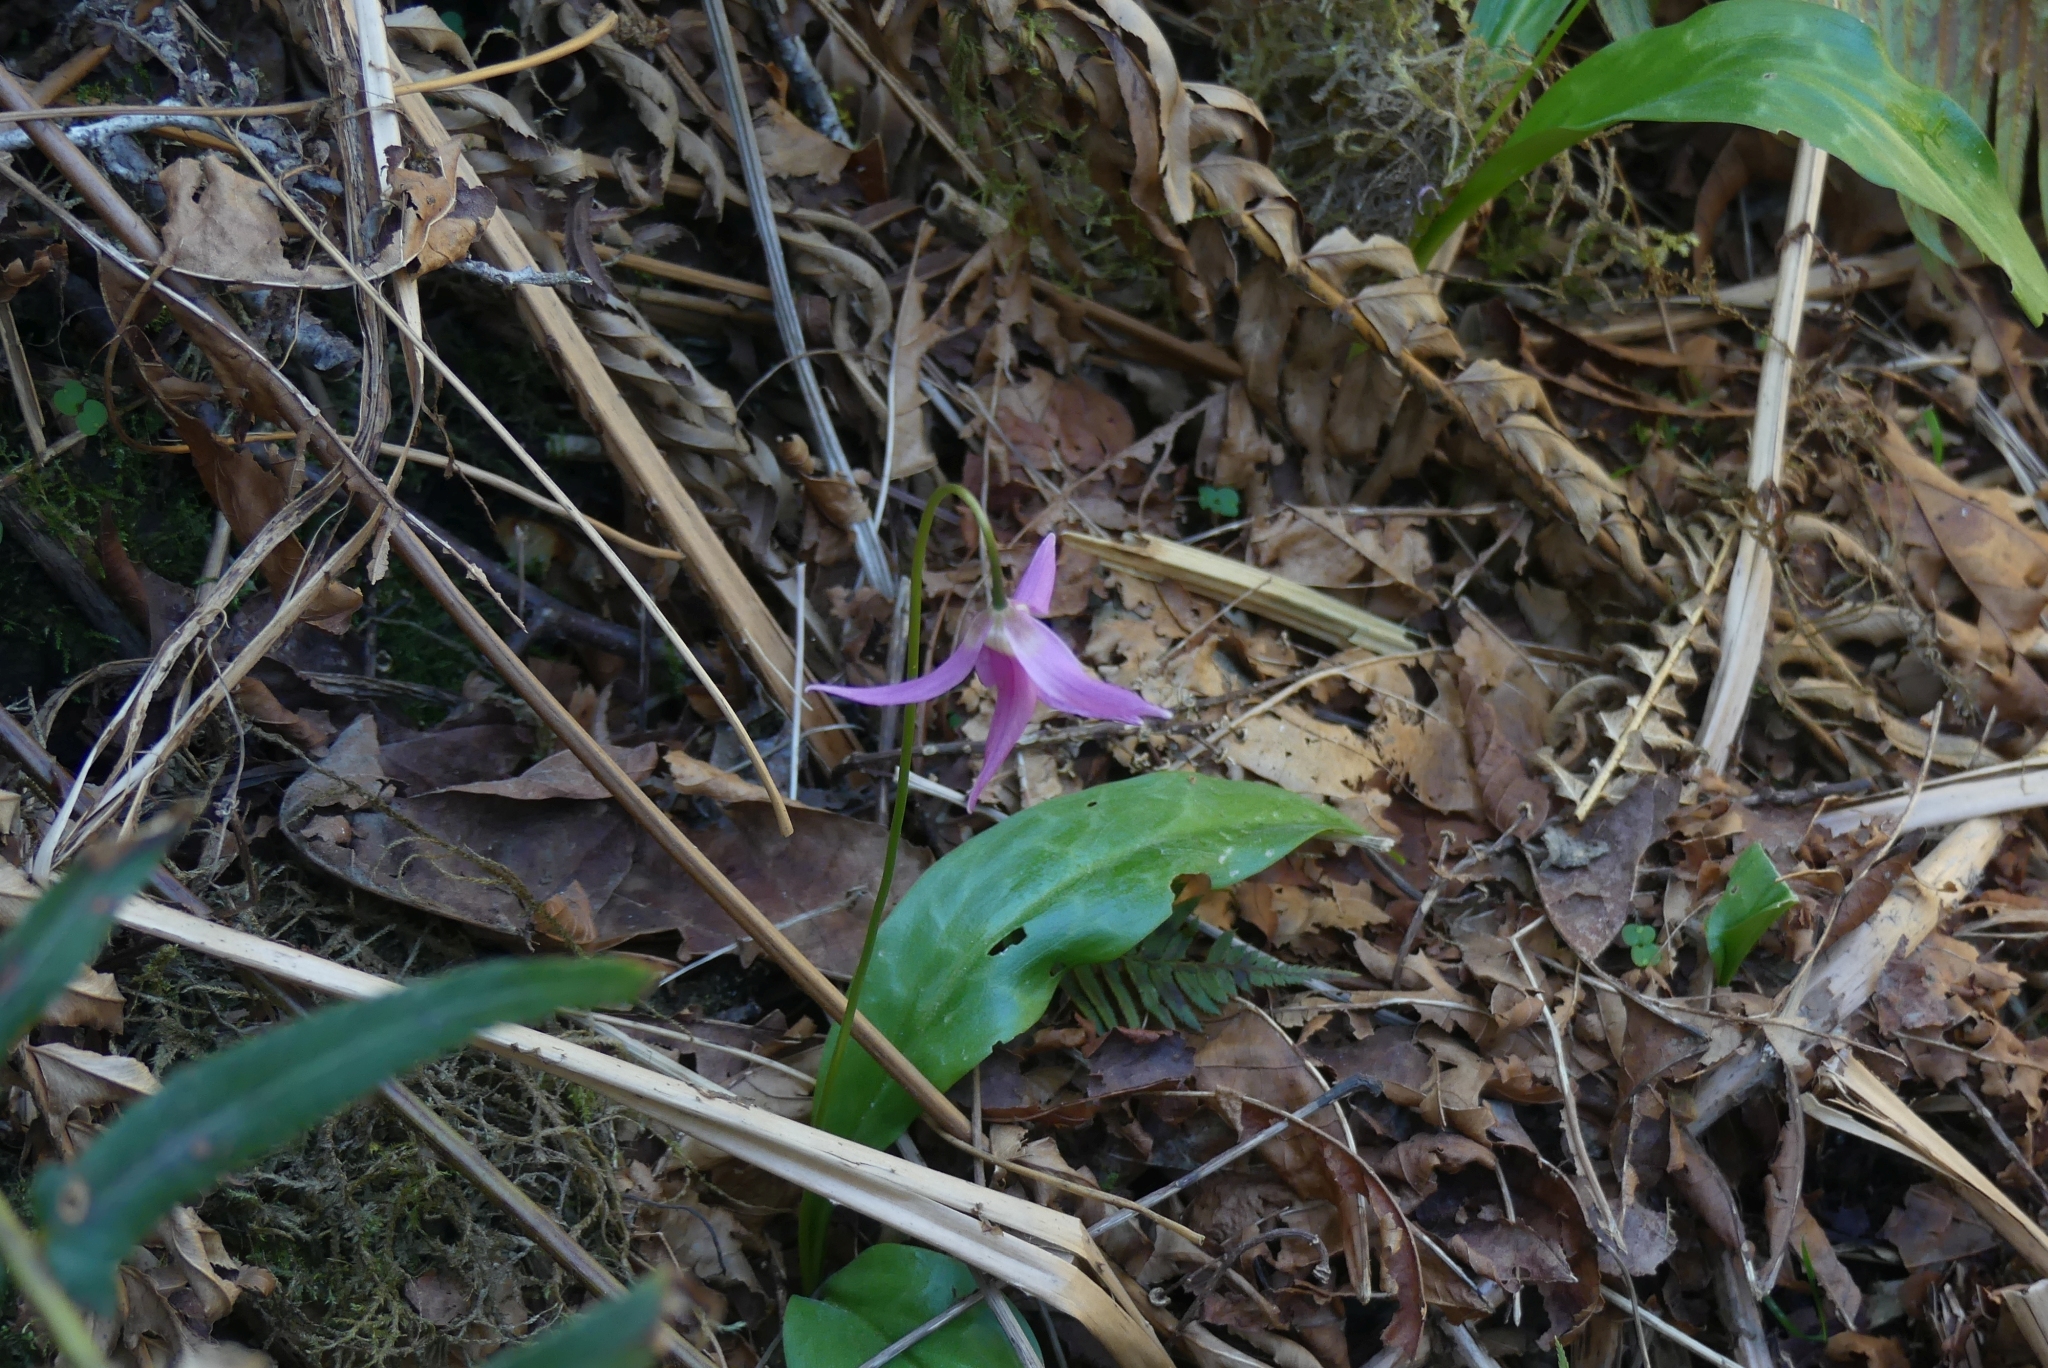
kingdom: Plantae
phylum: Tracheophyta
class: Liliopsida
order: Liliales
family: Liliaceae
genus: Erythronium
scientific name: Erythronium revolutum
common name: Pink fawn-lily
